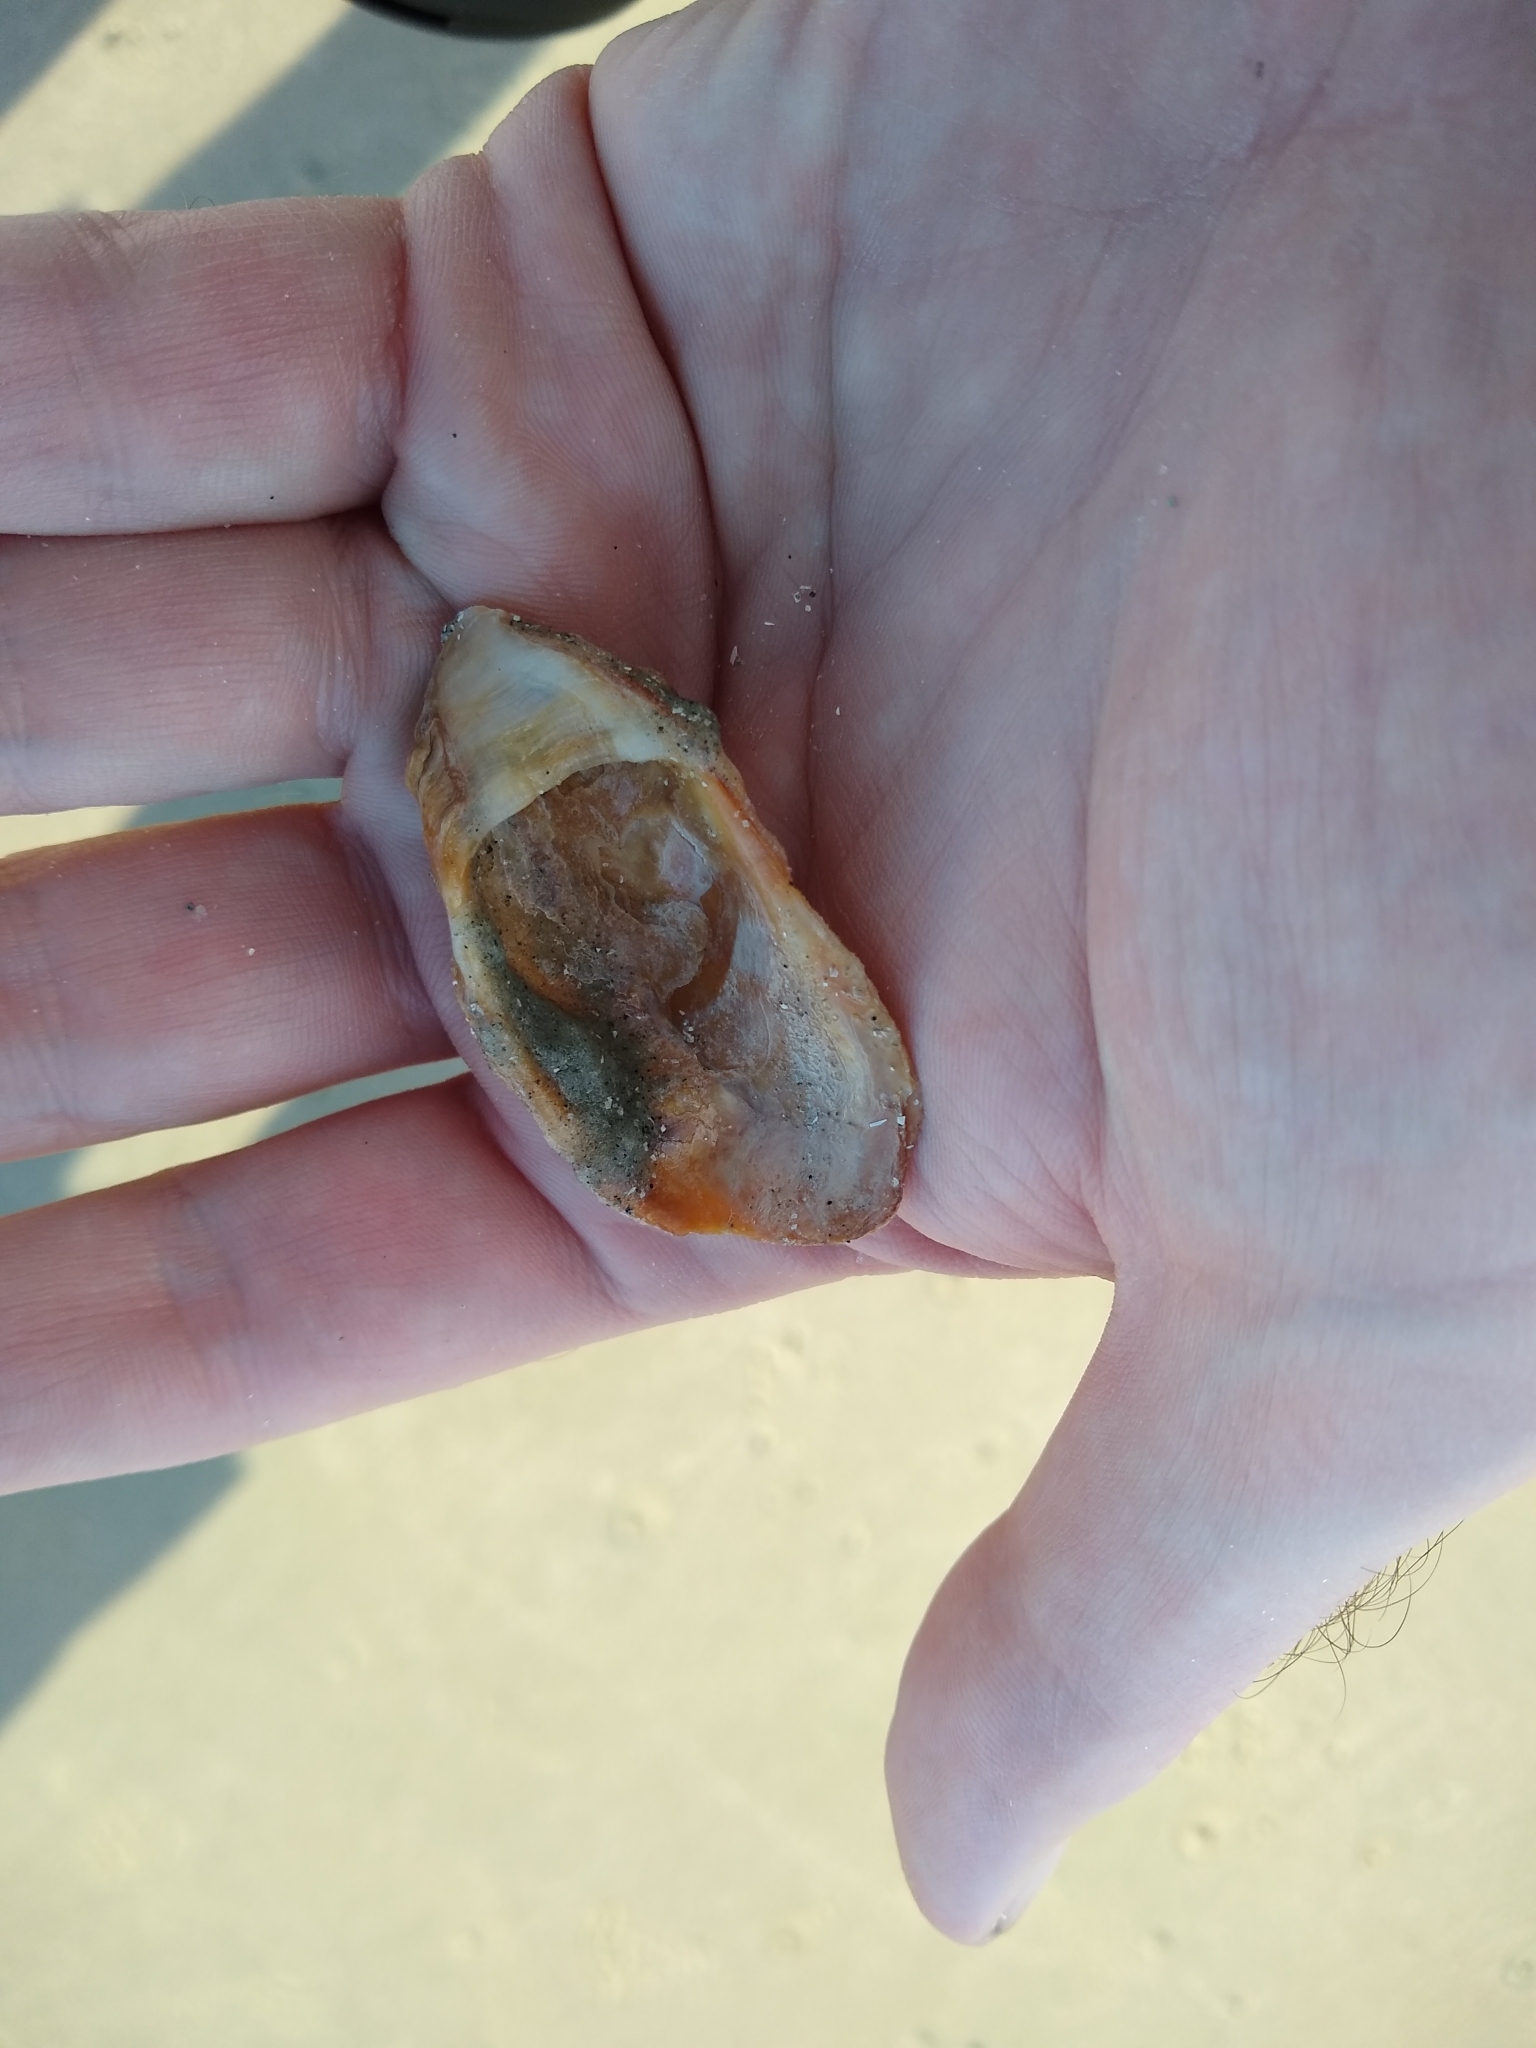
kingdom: Animalia
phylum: Mollusca
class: Bivalvia
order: Ostreida
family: Ostreidae
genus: Crassostrea
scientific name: Crassostrea virginica
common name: American oyster
